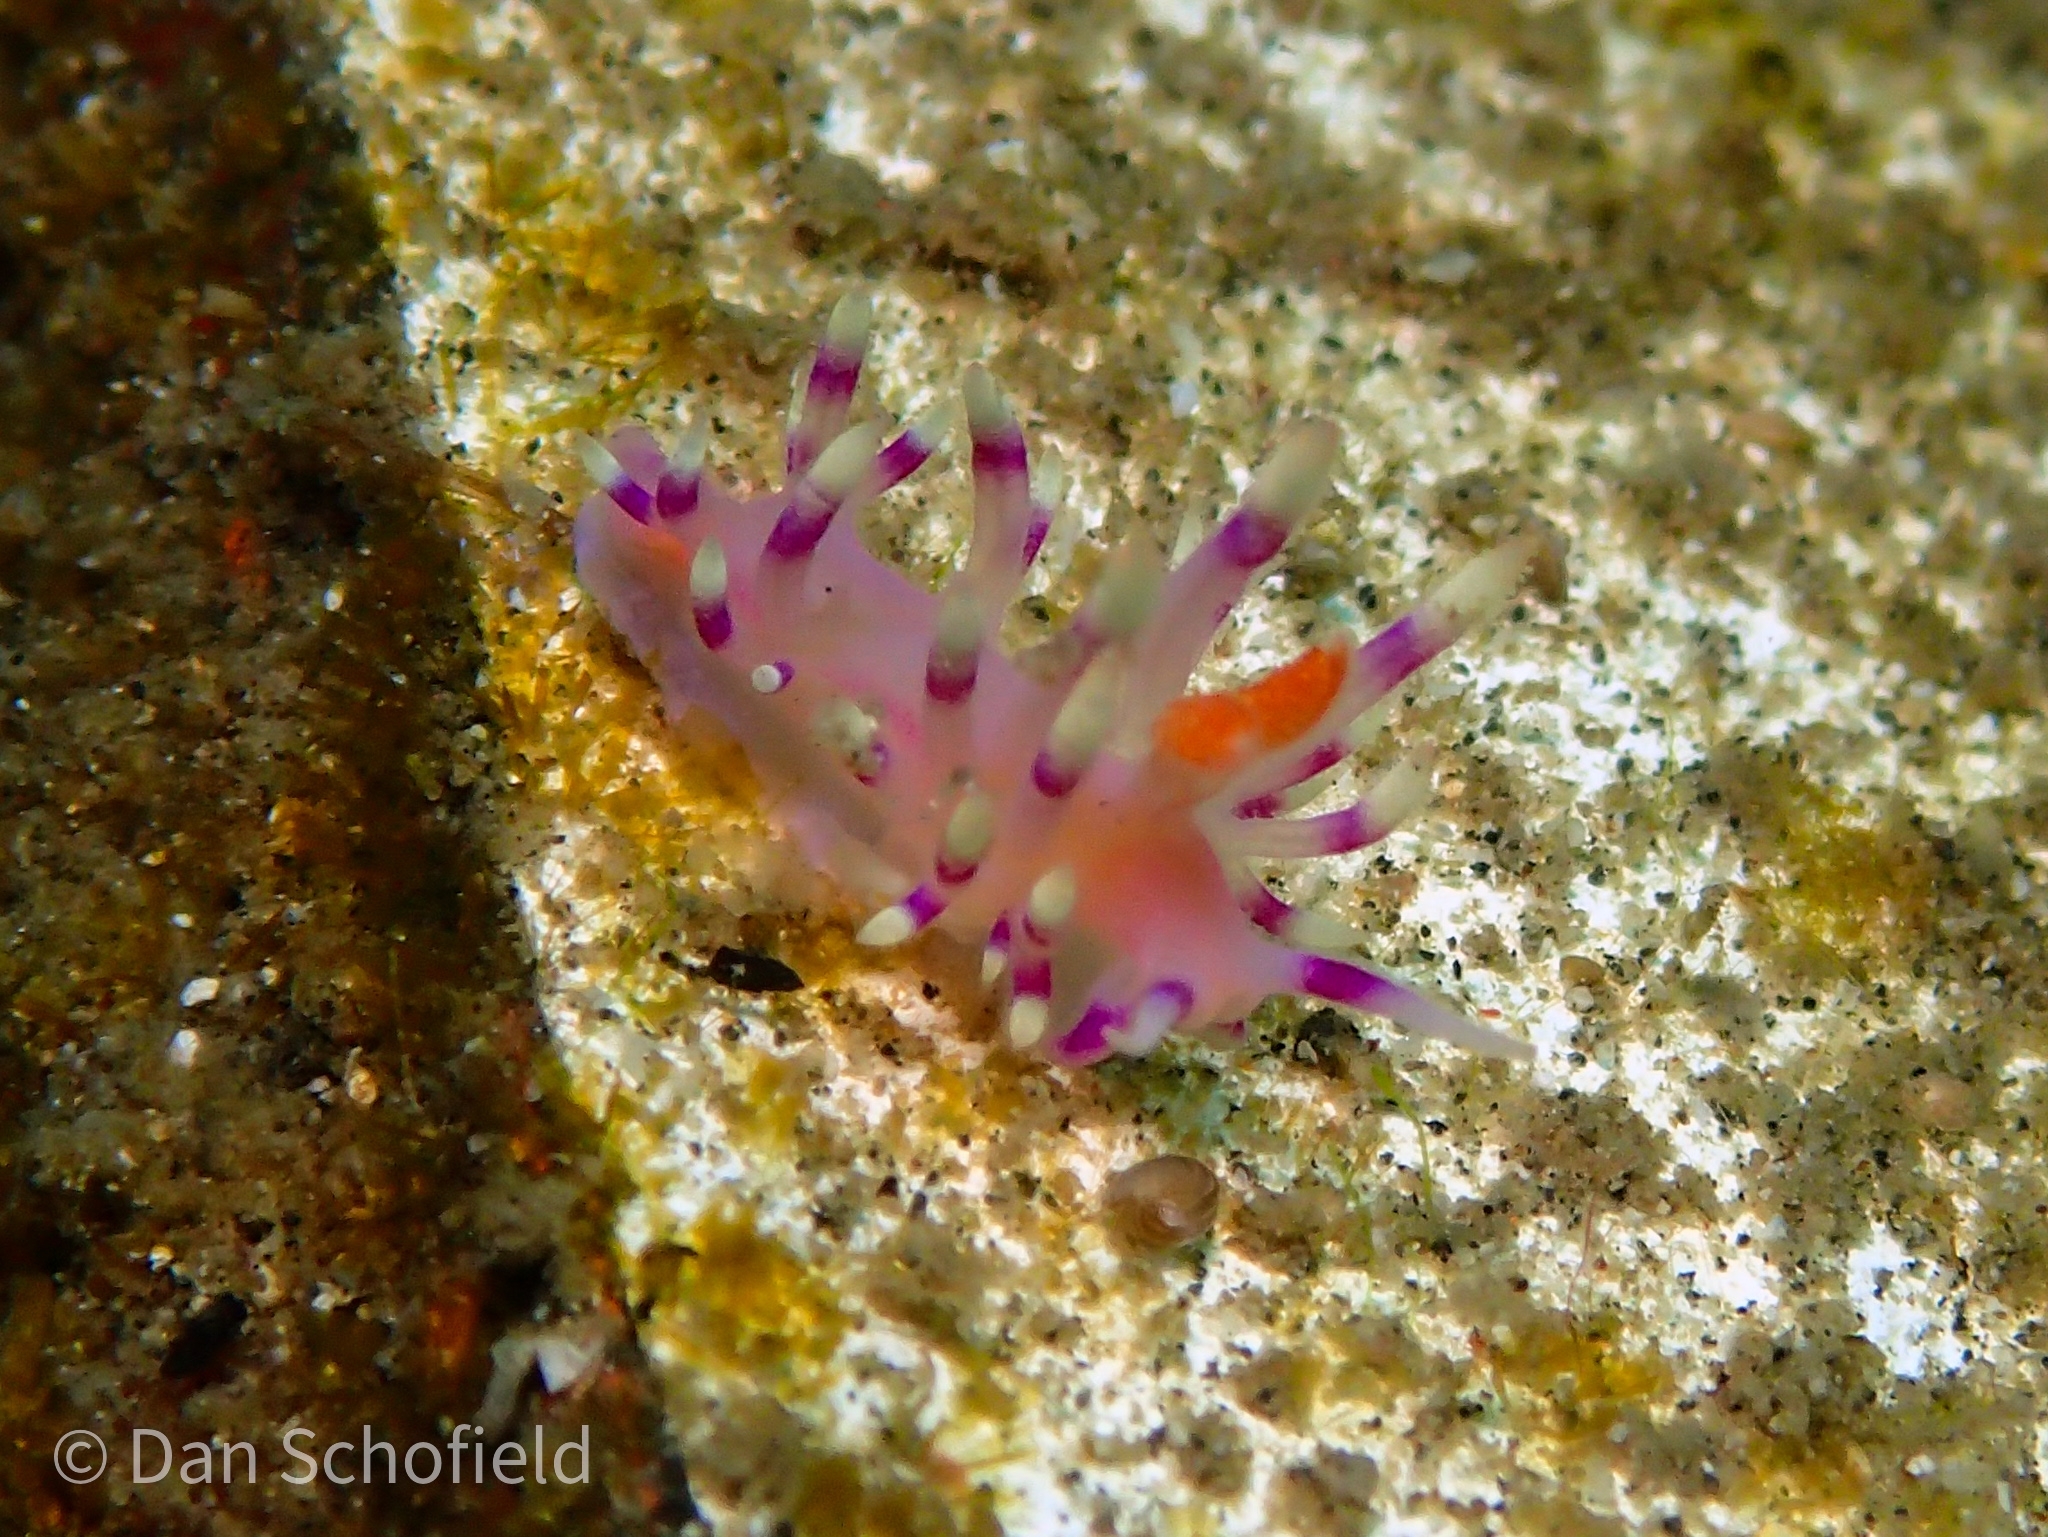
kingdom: Animalia
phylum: Mollusca
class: Gastropoda
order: Nudibranchia
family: Flabellinidae
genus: Coryphellina
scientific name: Coryphellina exoptata
